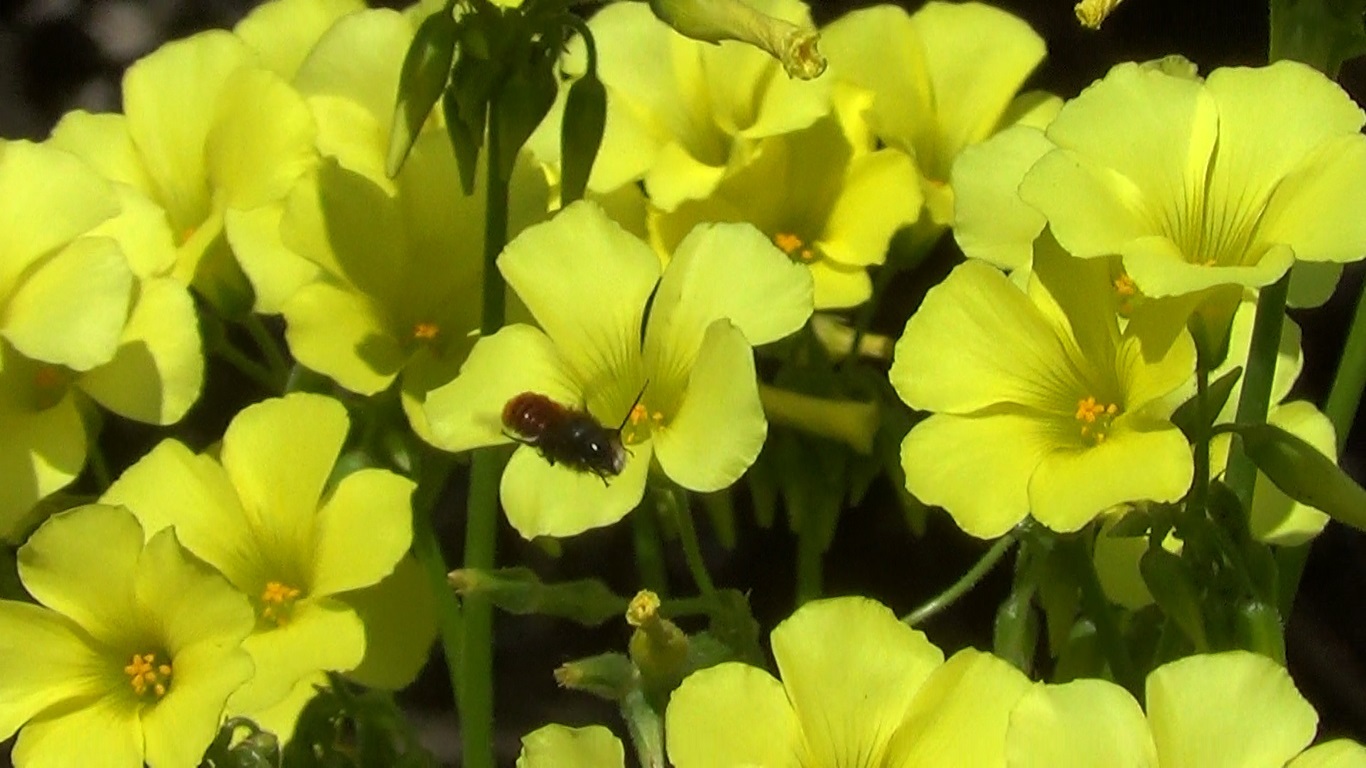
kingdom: Animalia
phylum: Arthropoda
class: Insecta
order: Hymenoptera
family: Megachilidae
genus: Osmia
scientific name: Osmia cornuta
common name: Mason bee
